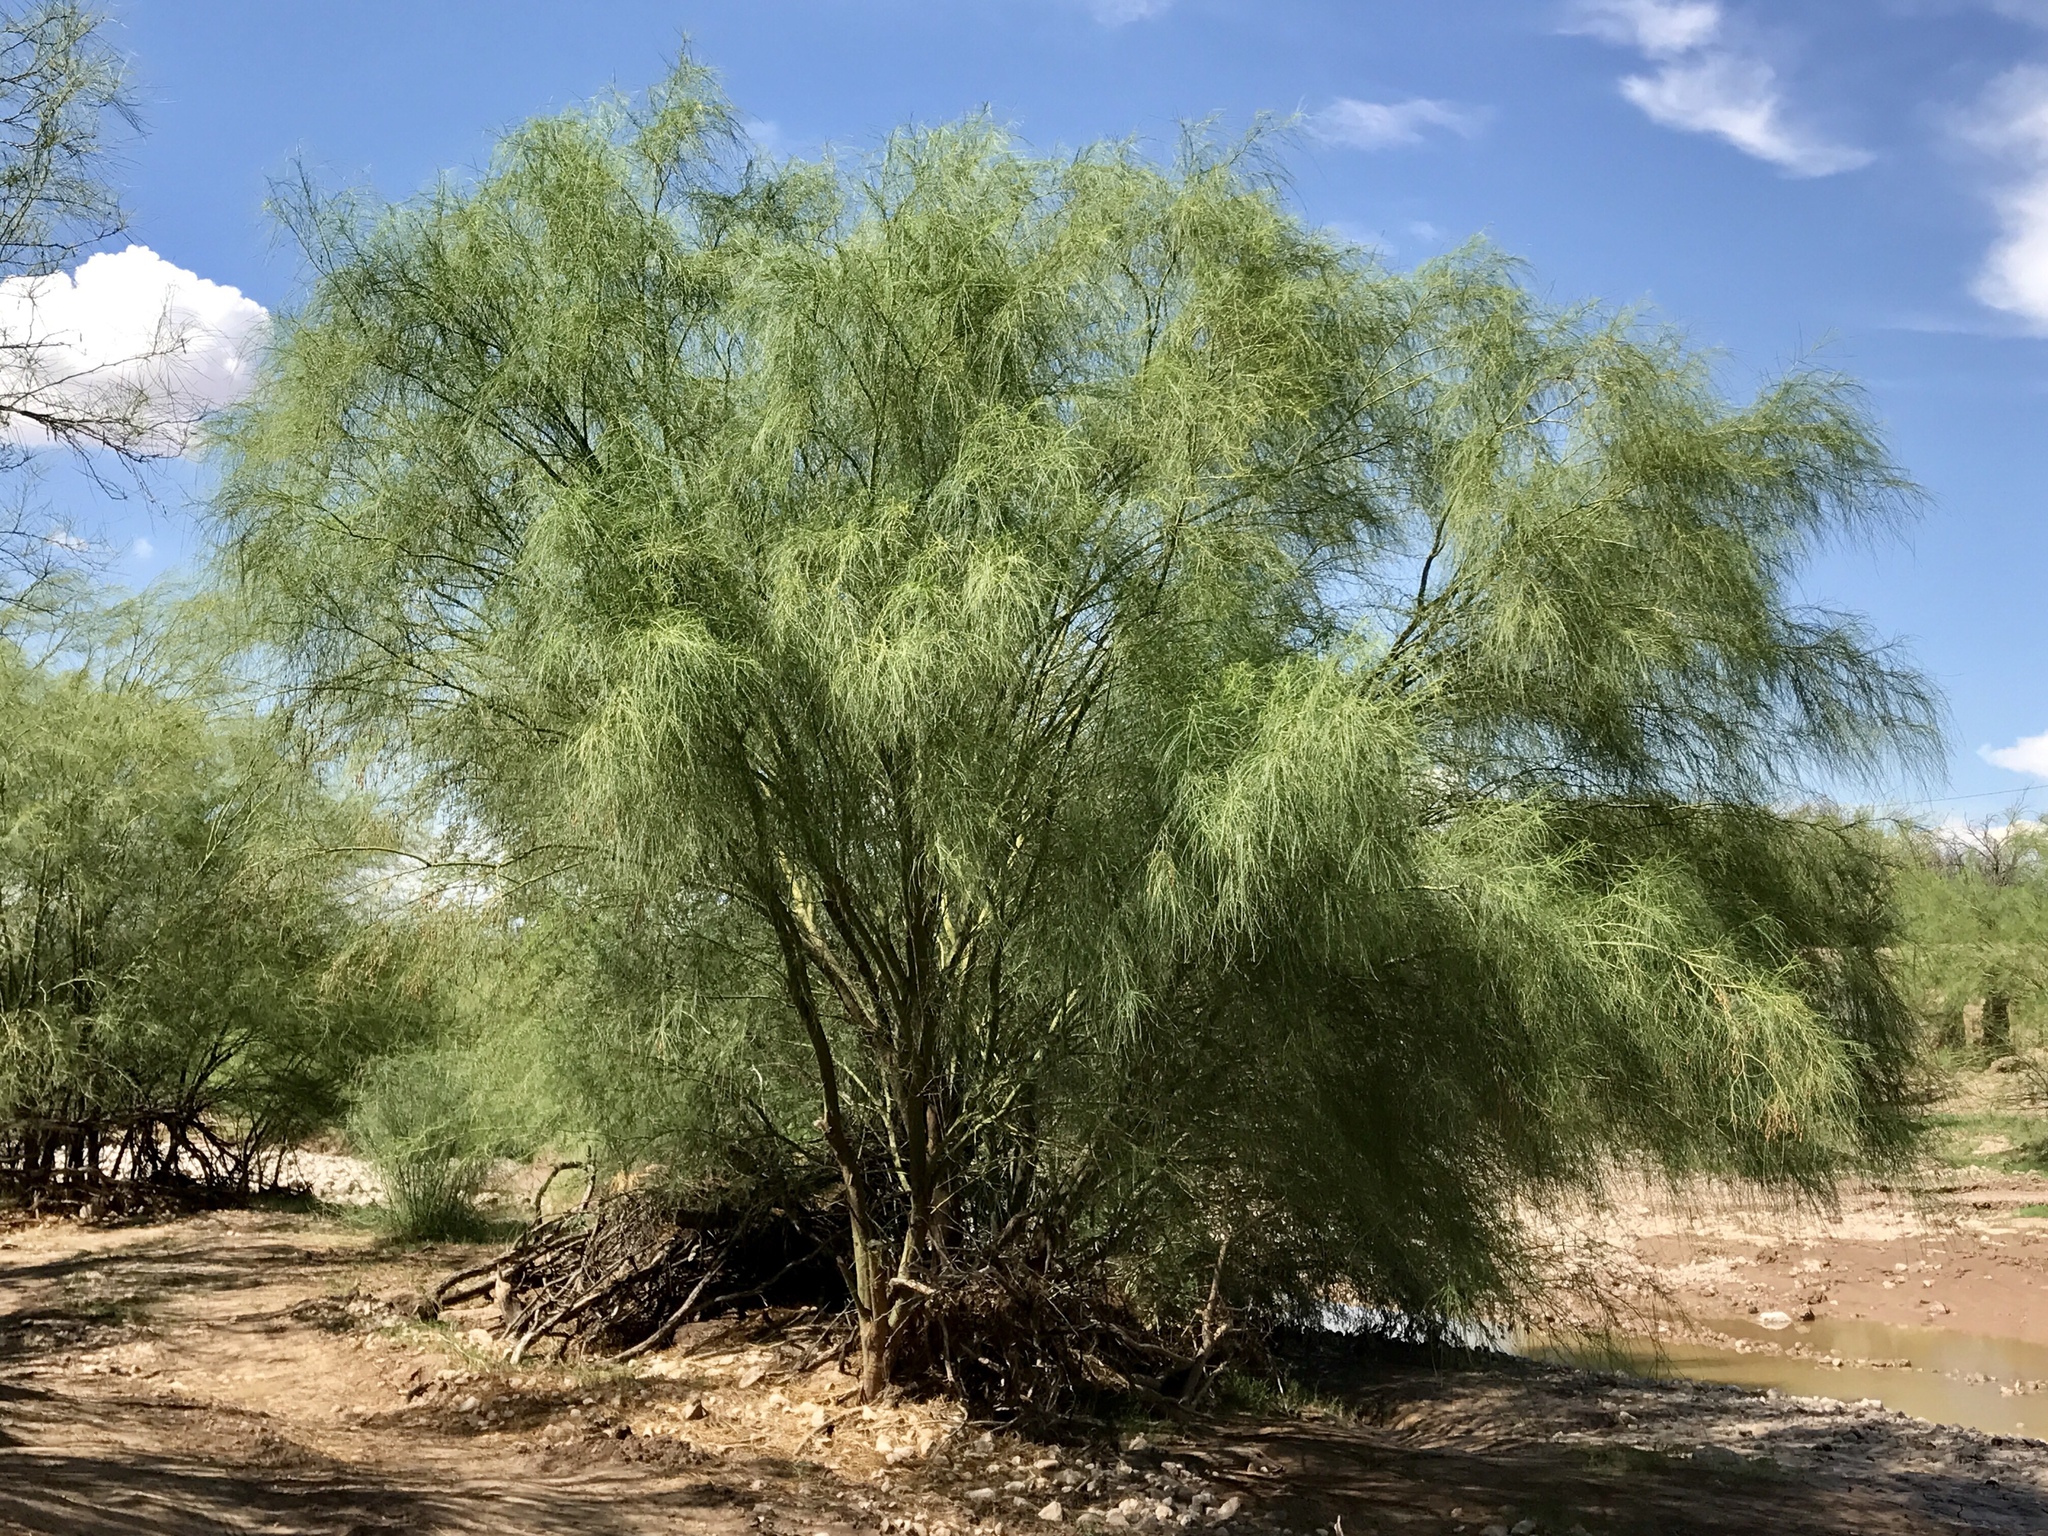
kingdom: Plantae
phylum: Tracheophyta
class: Magnoliopsida
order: Fabales
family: Fabaceae
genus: Parkinsonia
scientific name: Parkinsonia aculeata
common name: Jerusalem thorn
